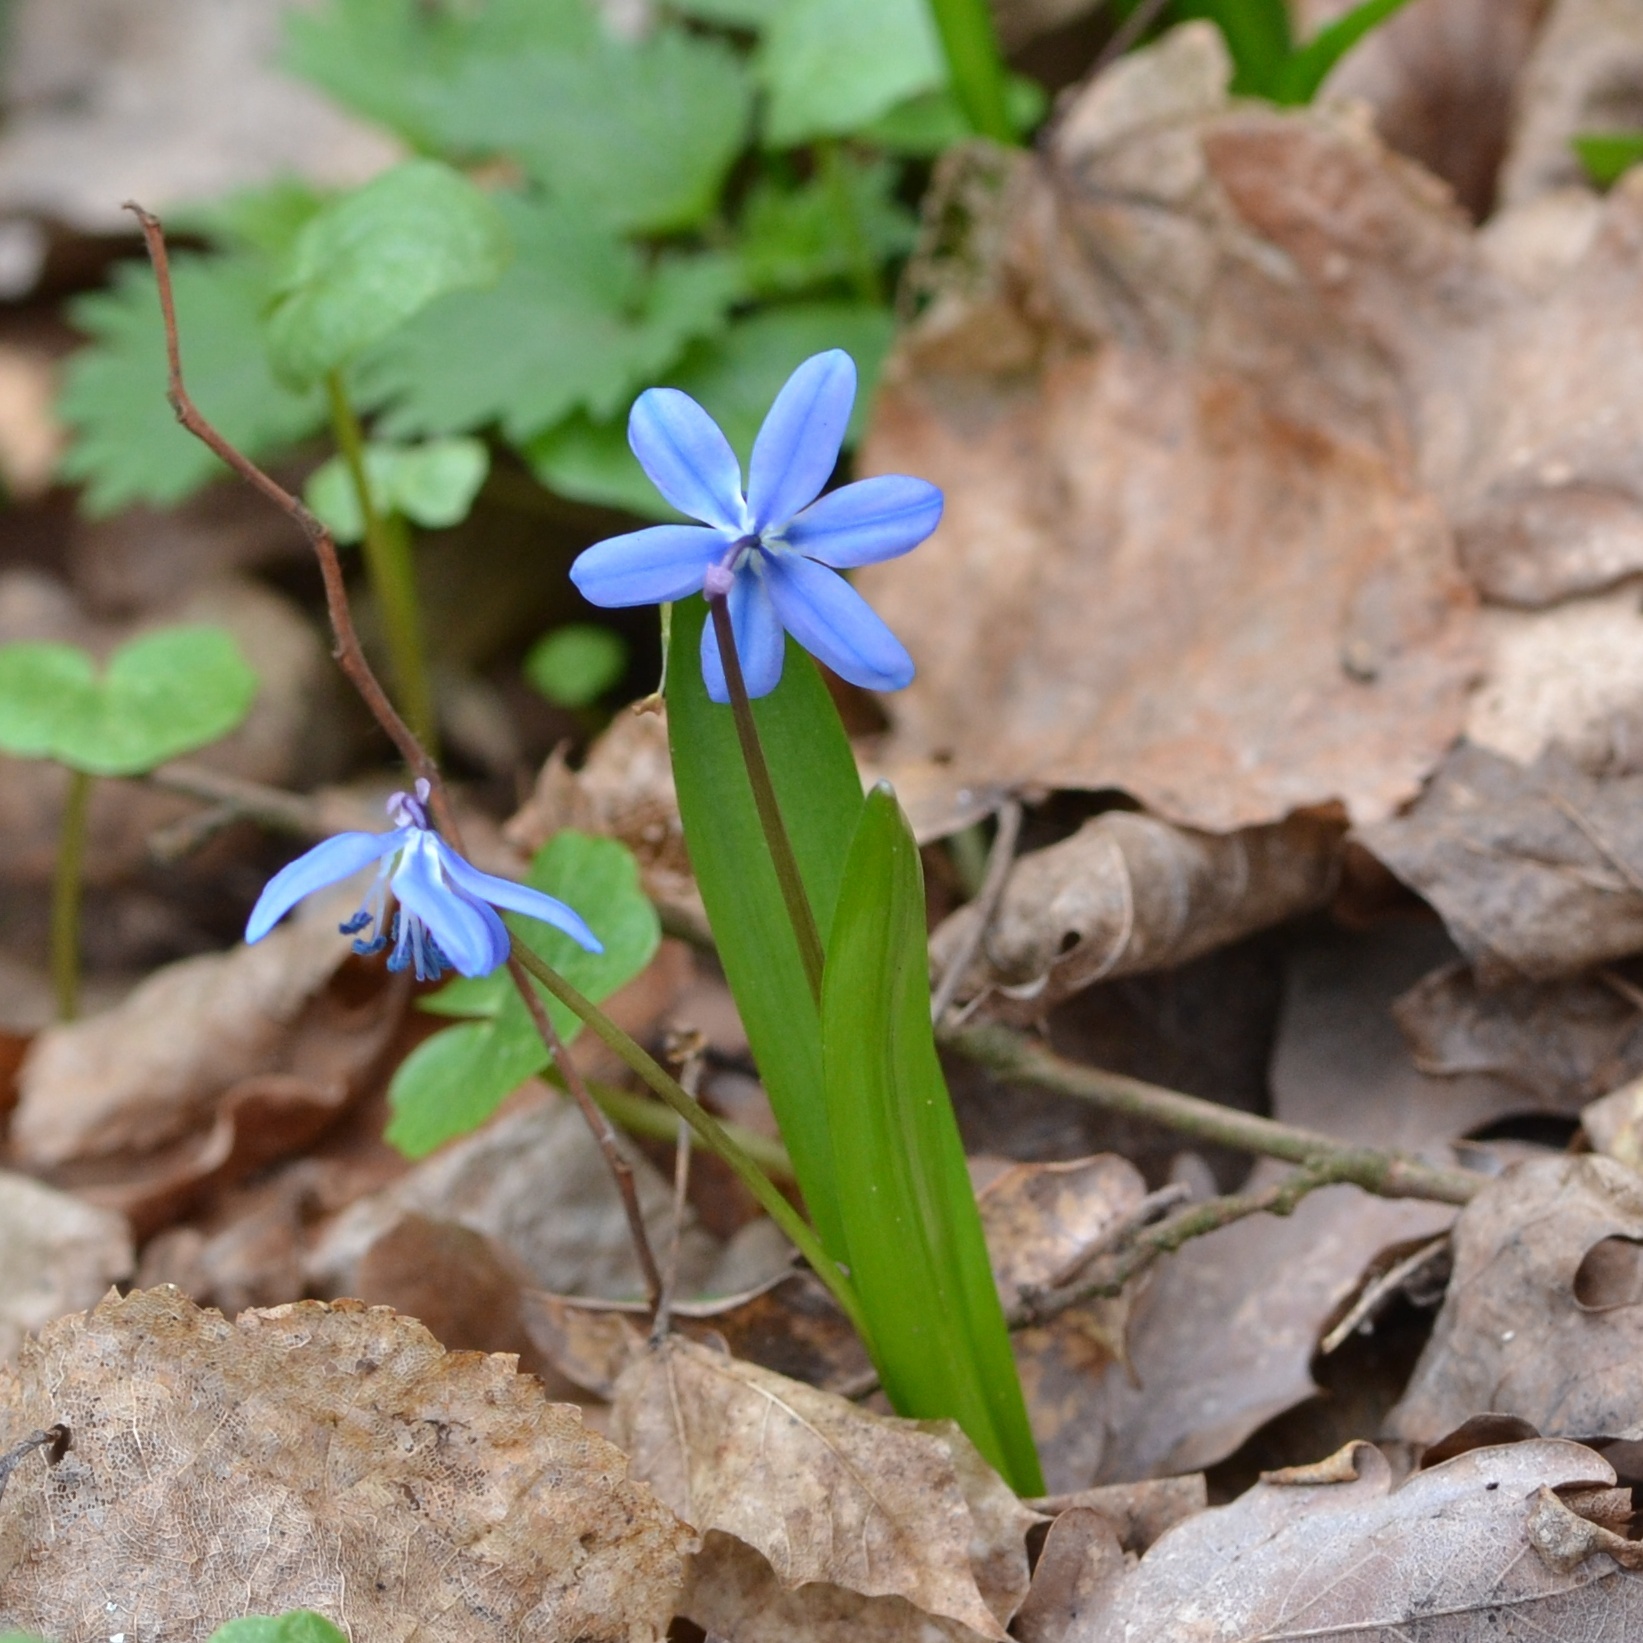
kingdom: Plantae
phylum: Tracheophyta
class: Liliopsida
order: Asparagales
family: Asparagaceae
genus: Scilla
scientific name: Scilla siberica
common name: Siberian squill
